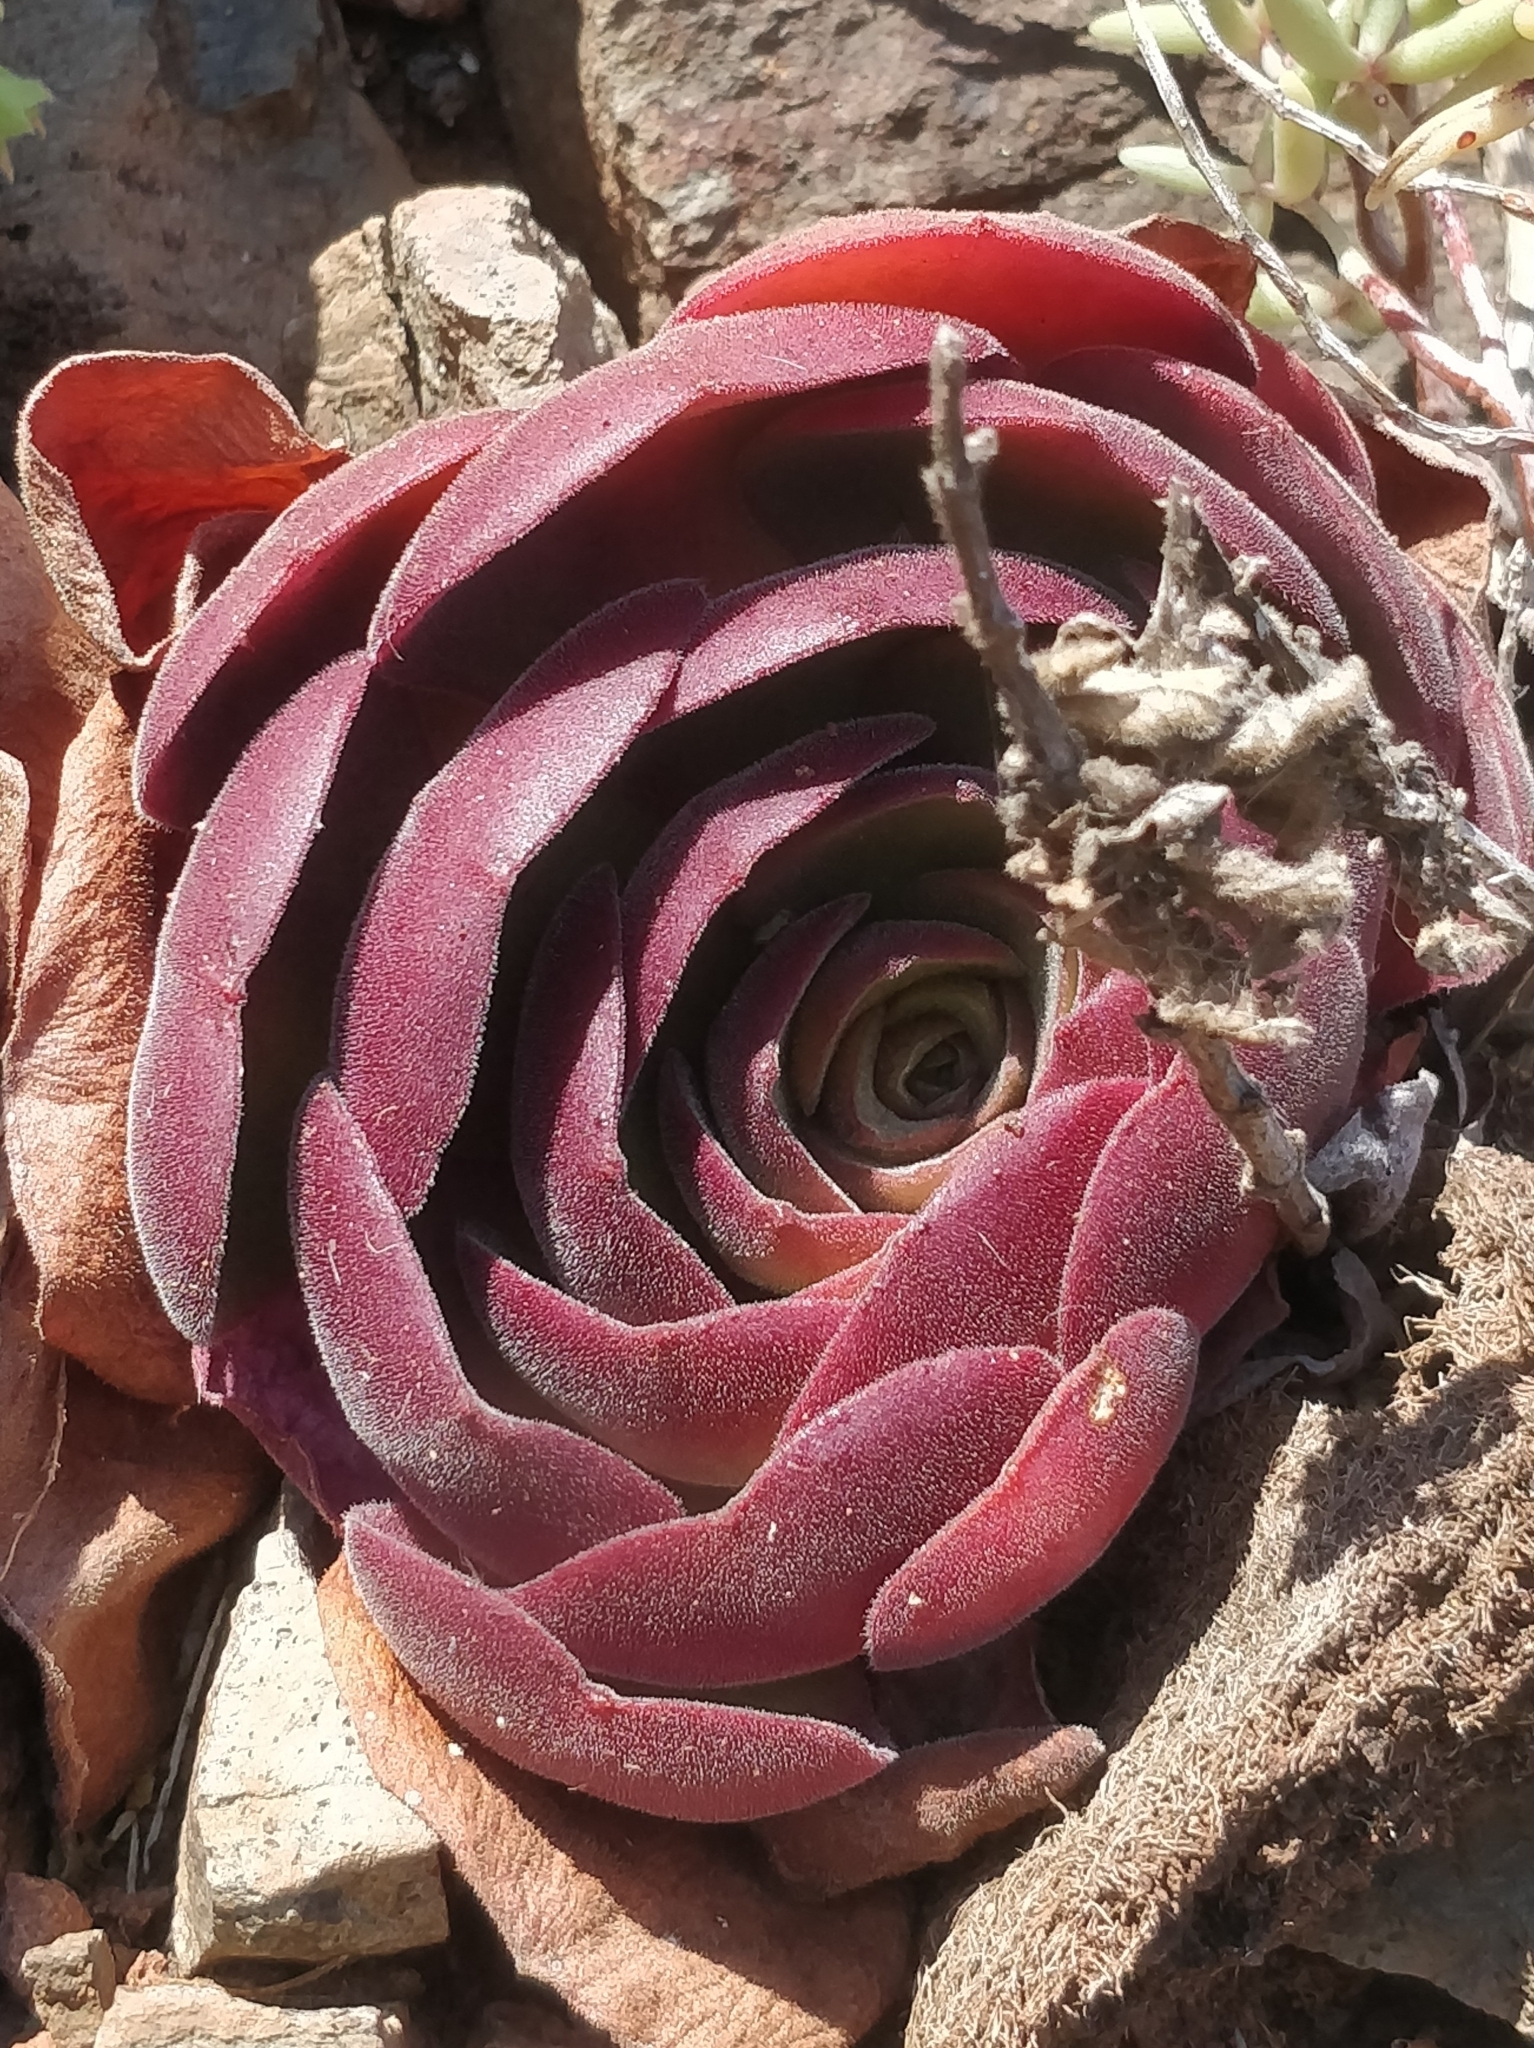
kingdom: Plantae
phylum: Tracheophyta
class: Magnoliopsida
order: Saxifragales
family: Crassulaceae
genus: Aeonium
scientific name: Aeonium glandulosum
